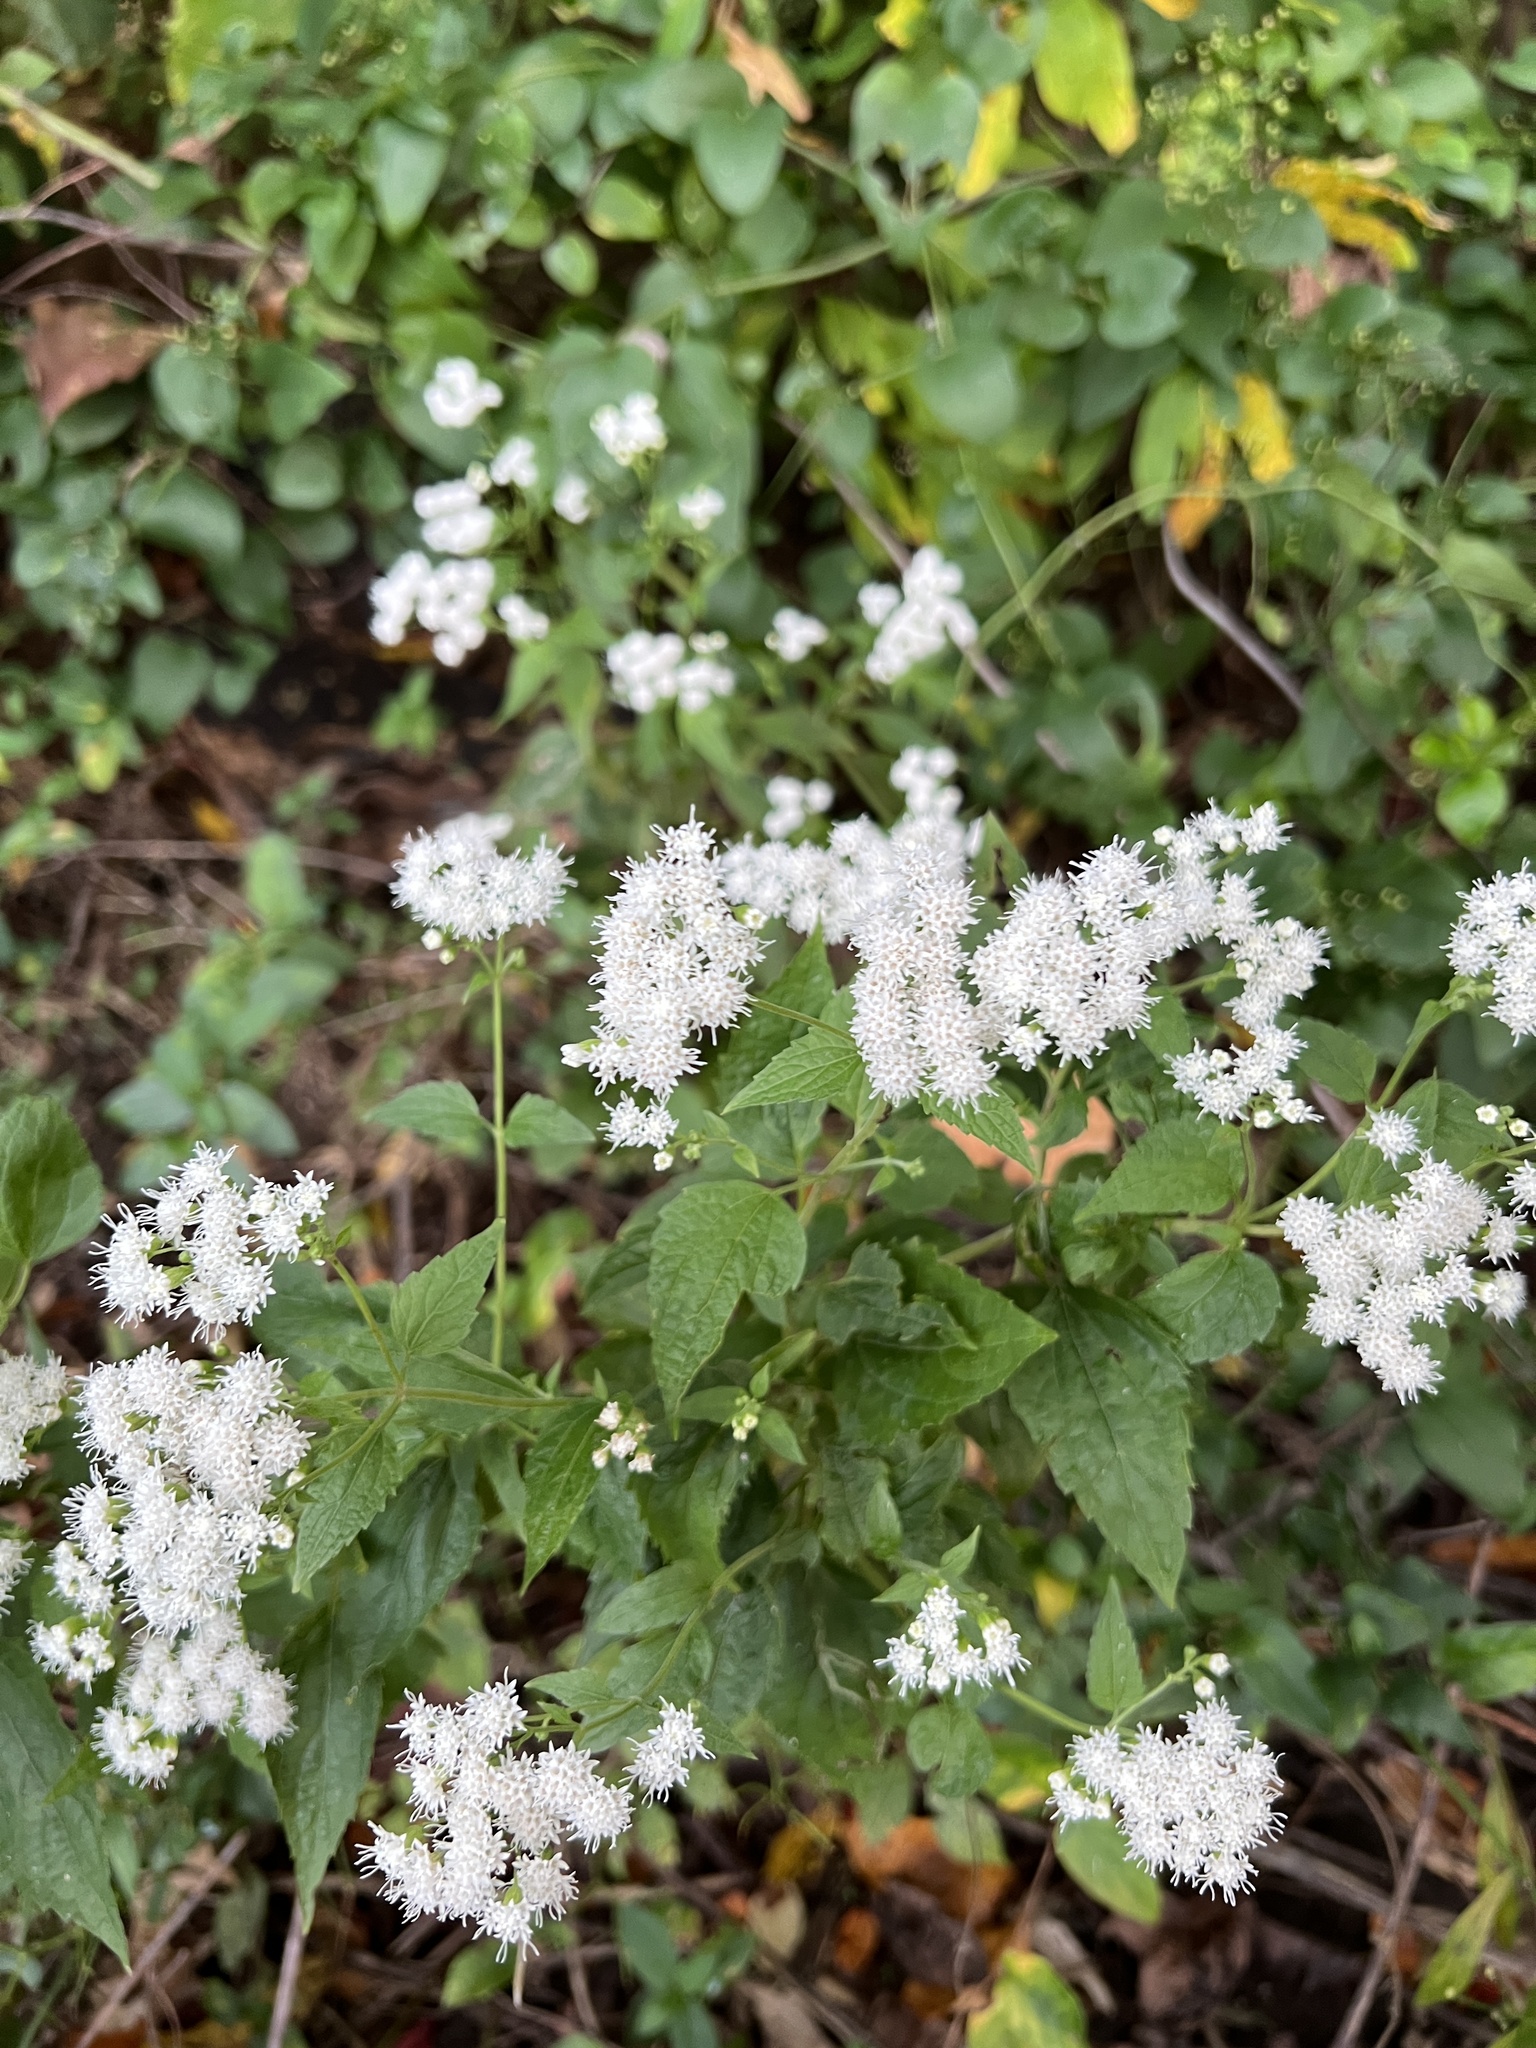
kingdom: Plantae
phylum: Tracheophyta
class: Magnoliopsida
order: Asterales
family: Asteraceae
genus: Ageratina
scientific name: Ageratina altissima
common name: White snakeroot
